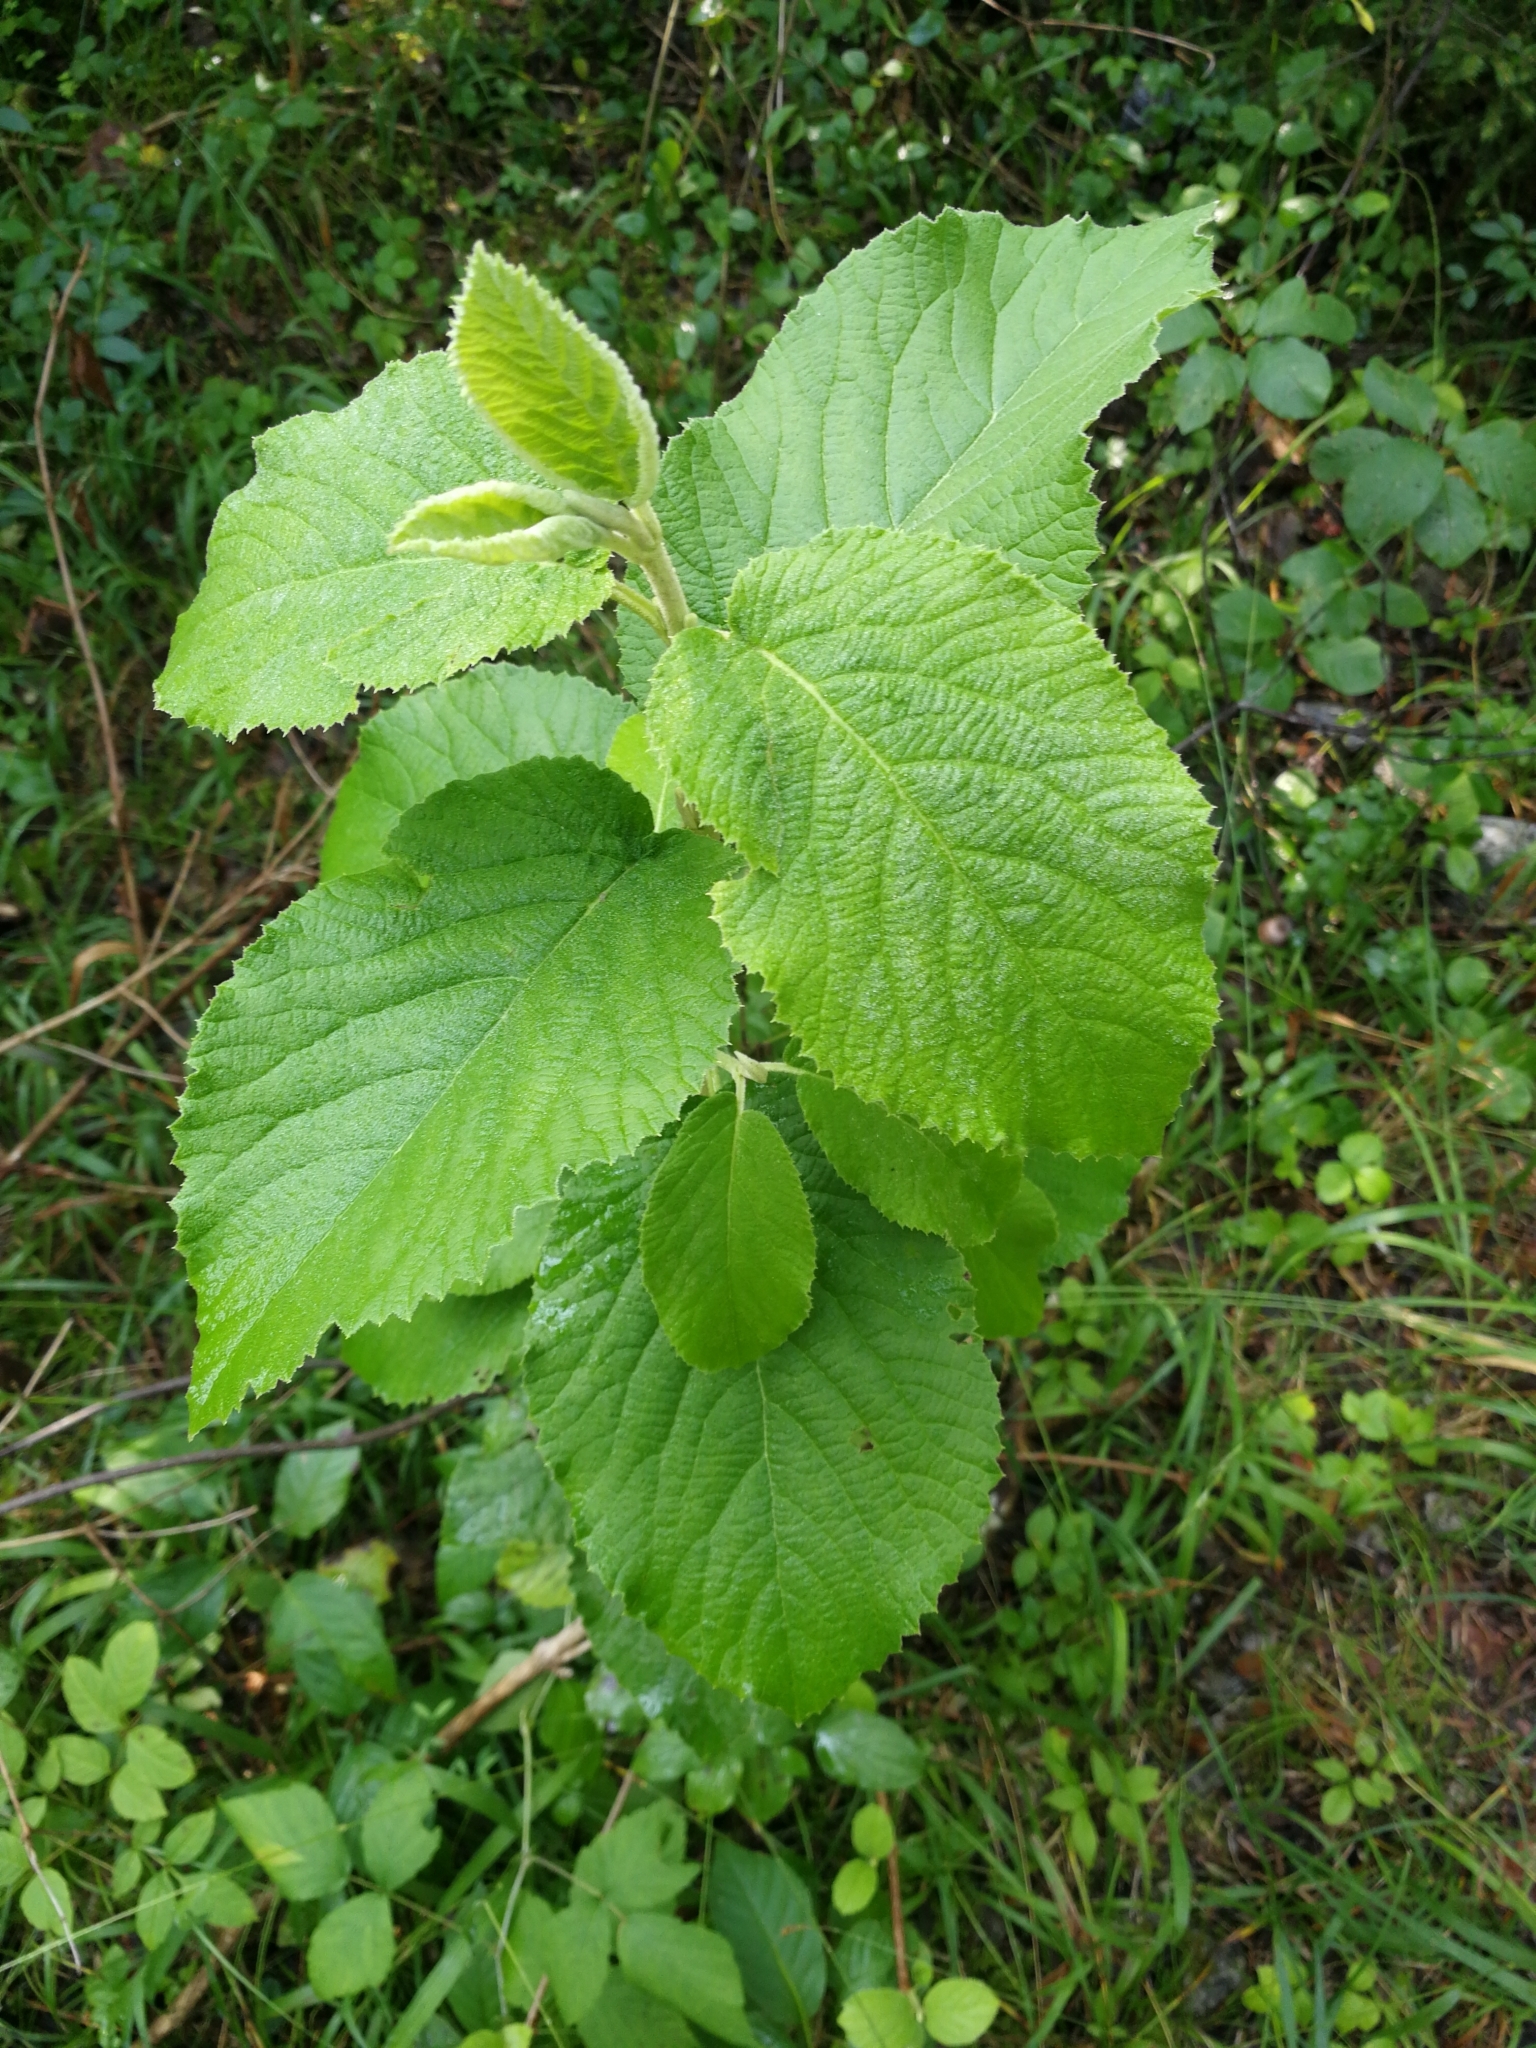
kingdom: Plantae
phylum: Tracheophyta
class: Magnoliopsida
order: Dipsacales
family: Viburnaceae
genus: Viburnum
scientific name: Viburnum lantana
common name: Wayfaring tree
